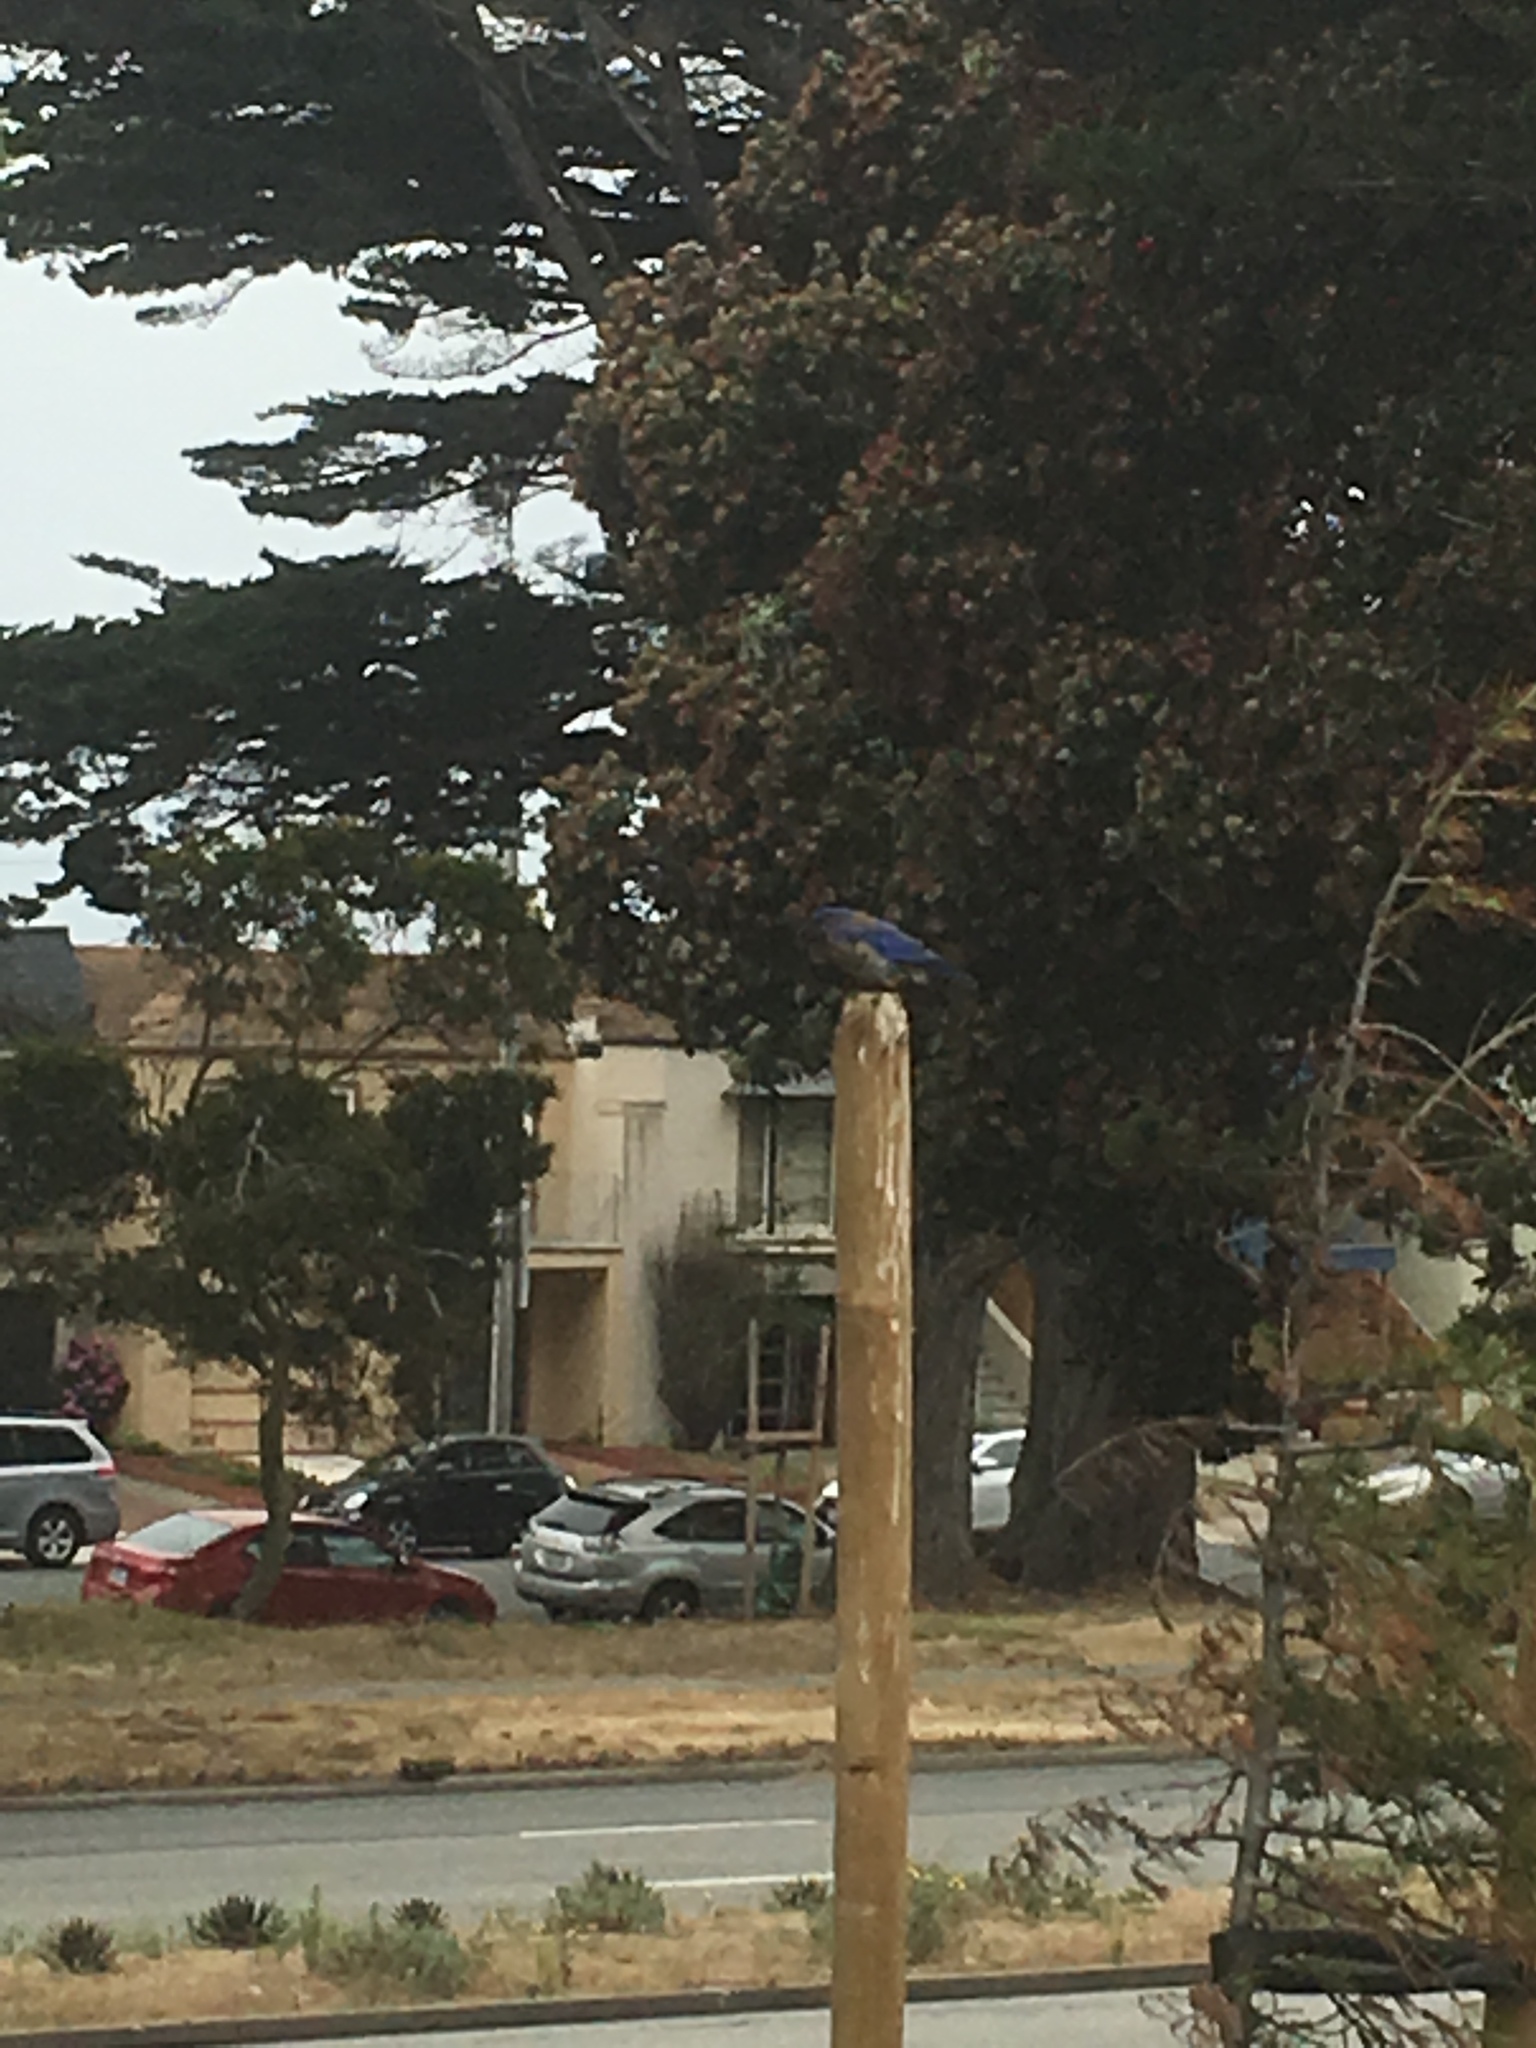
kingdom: Animalia
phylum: Chordata
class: Aves
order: Passeriformes
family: Turdidae
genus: Sialia
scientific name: Sialia mexicana
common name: Western bluebird
